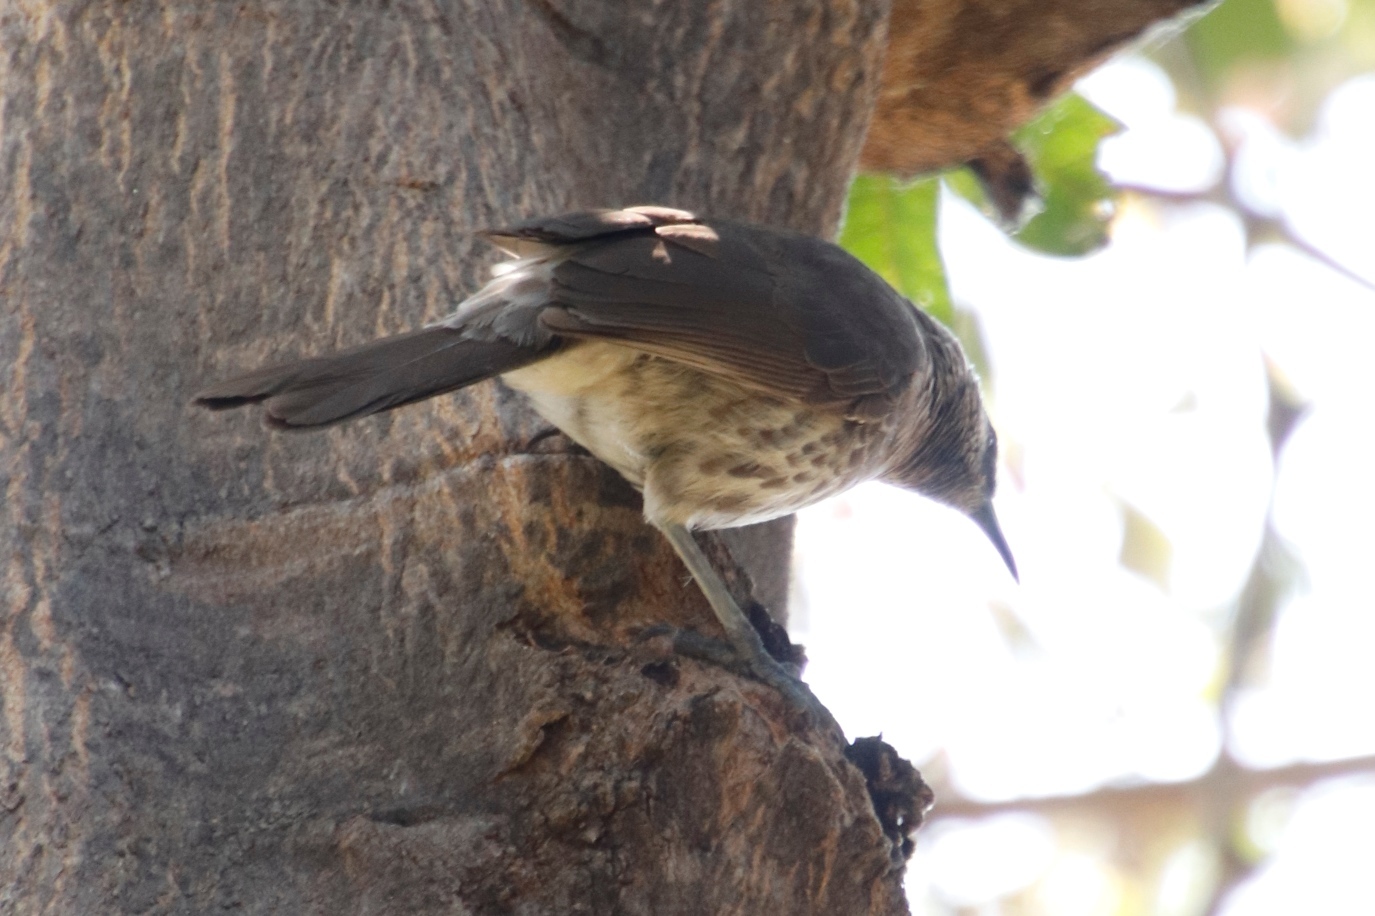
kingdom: Animalia
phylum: Chordata
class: Aves
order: Passeriformes
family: Leiothrichidae
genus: Turdoides
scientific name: Turdoides hartlaubii
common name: Hartlaub's babbler
